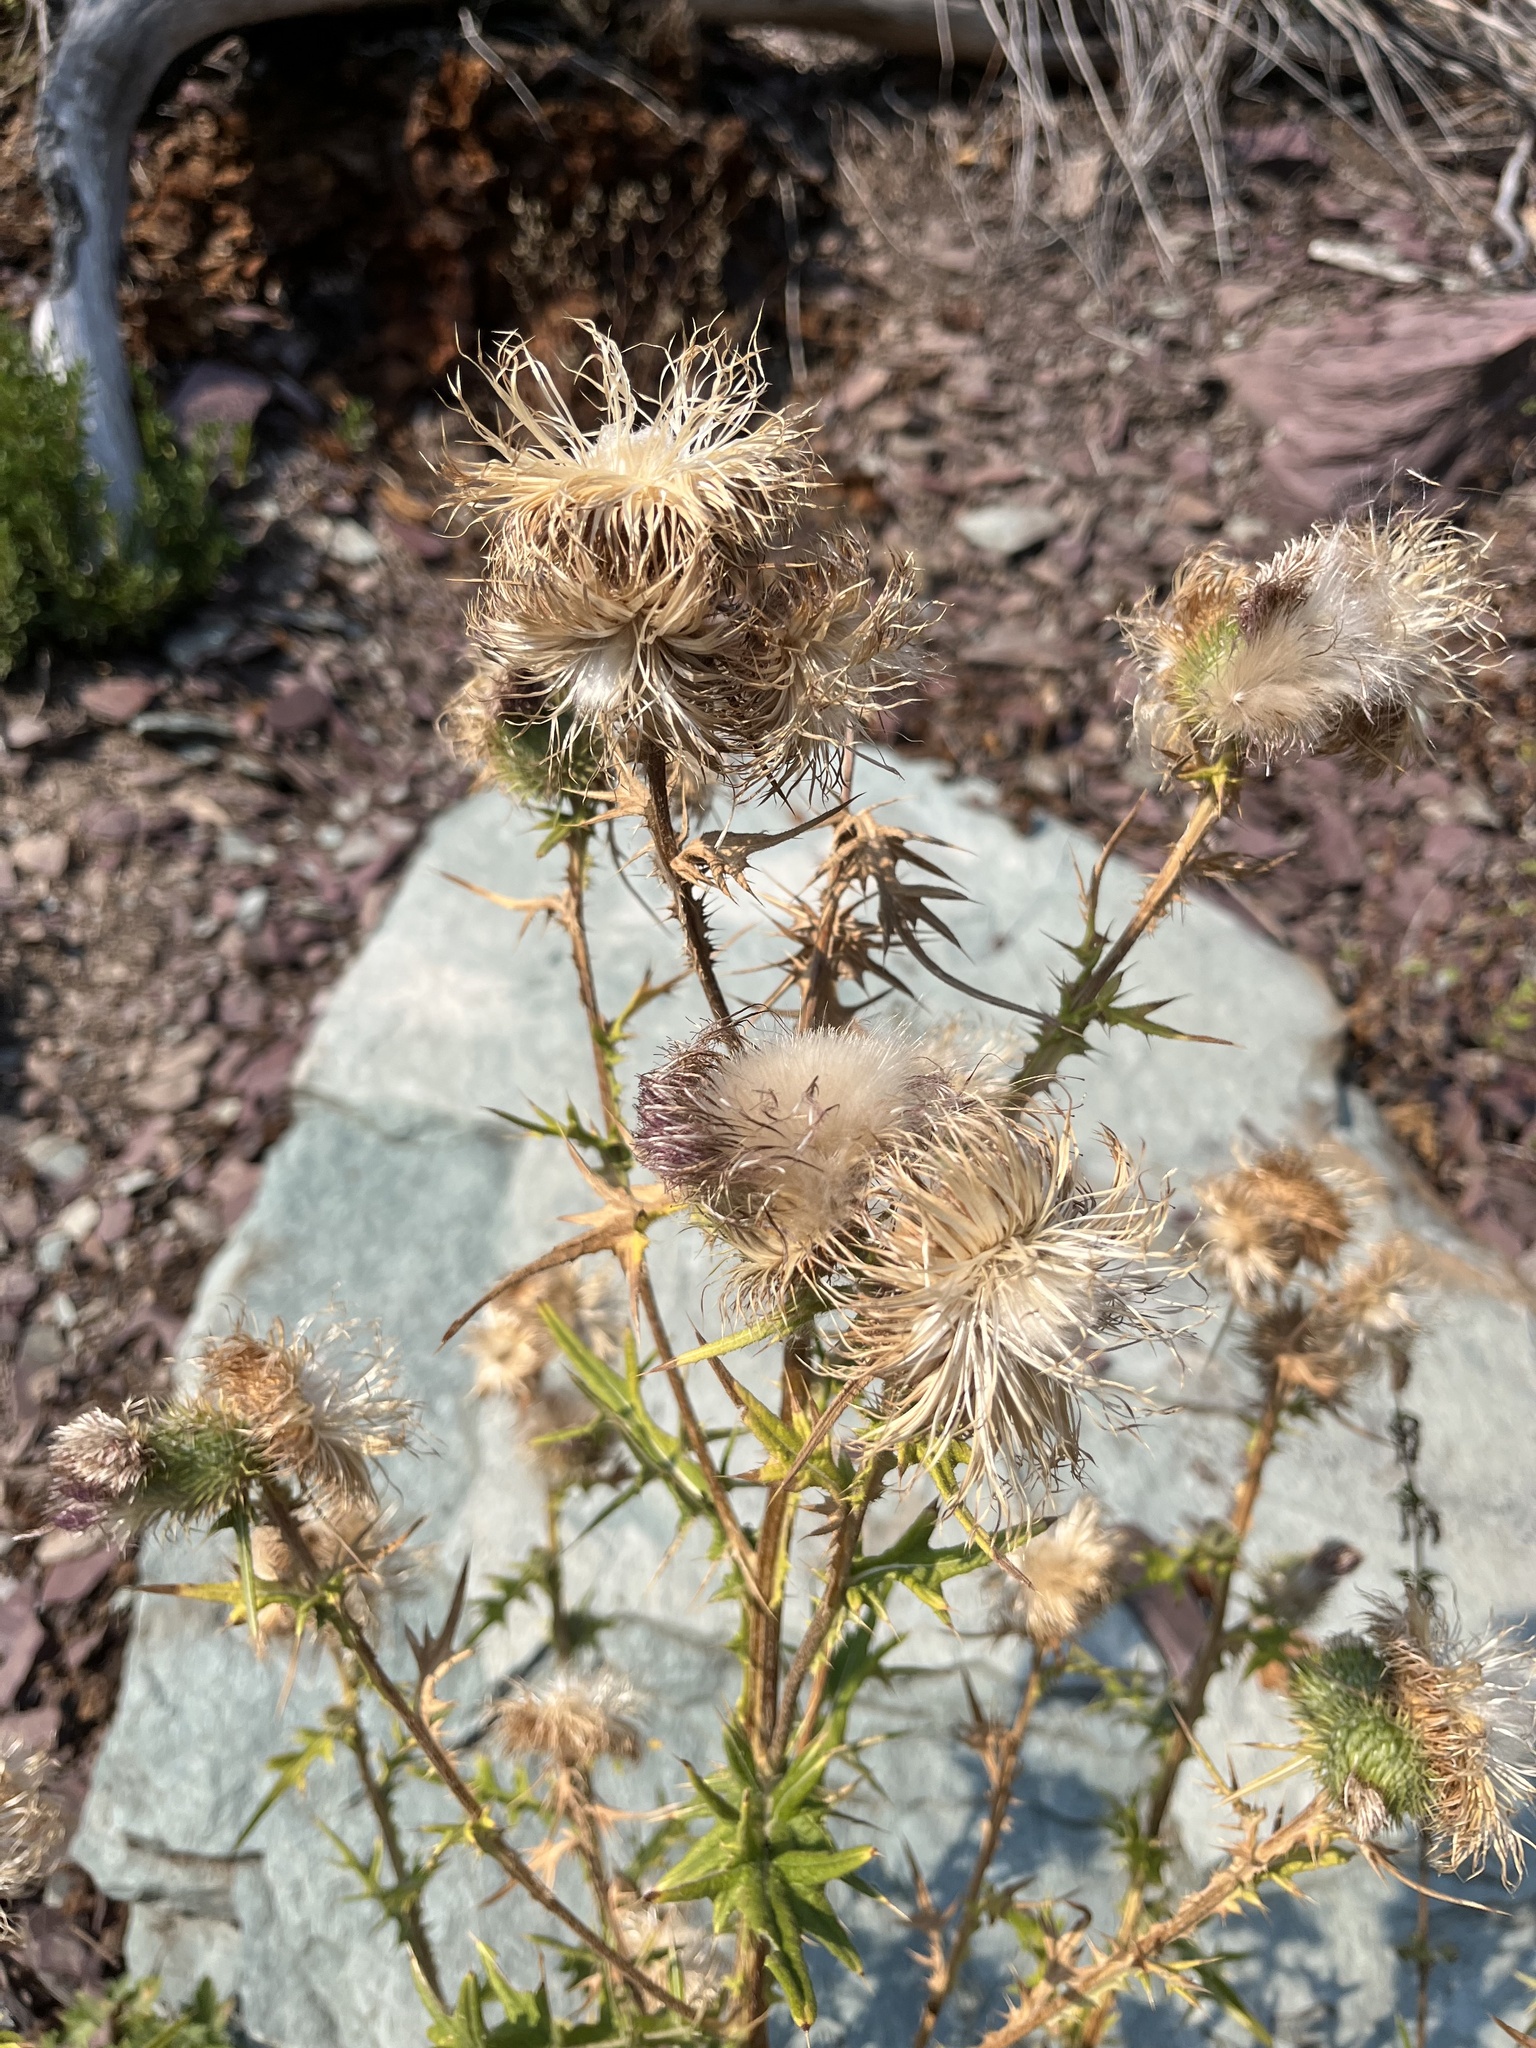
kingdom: Plantae
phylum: Tracheophyta
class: Magnoliopsida
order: Asterales
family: Asteraceae
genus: Cirsium
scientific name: Cirsium vulgare
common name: Bull thistle
